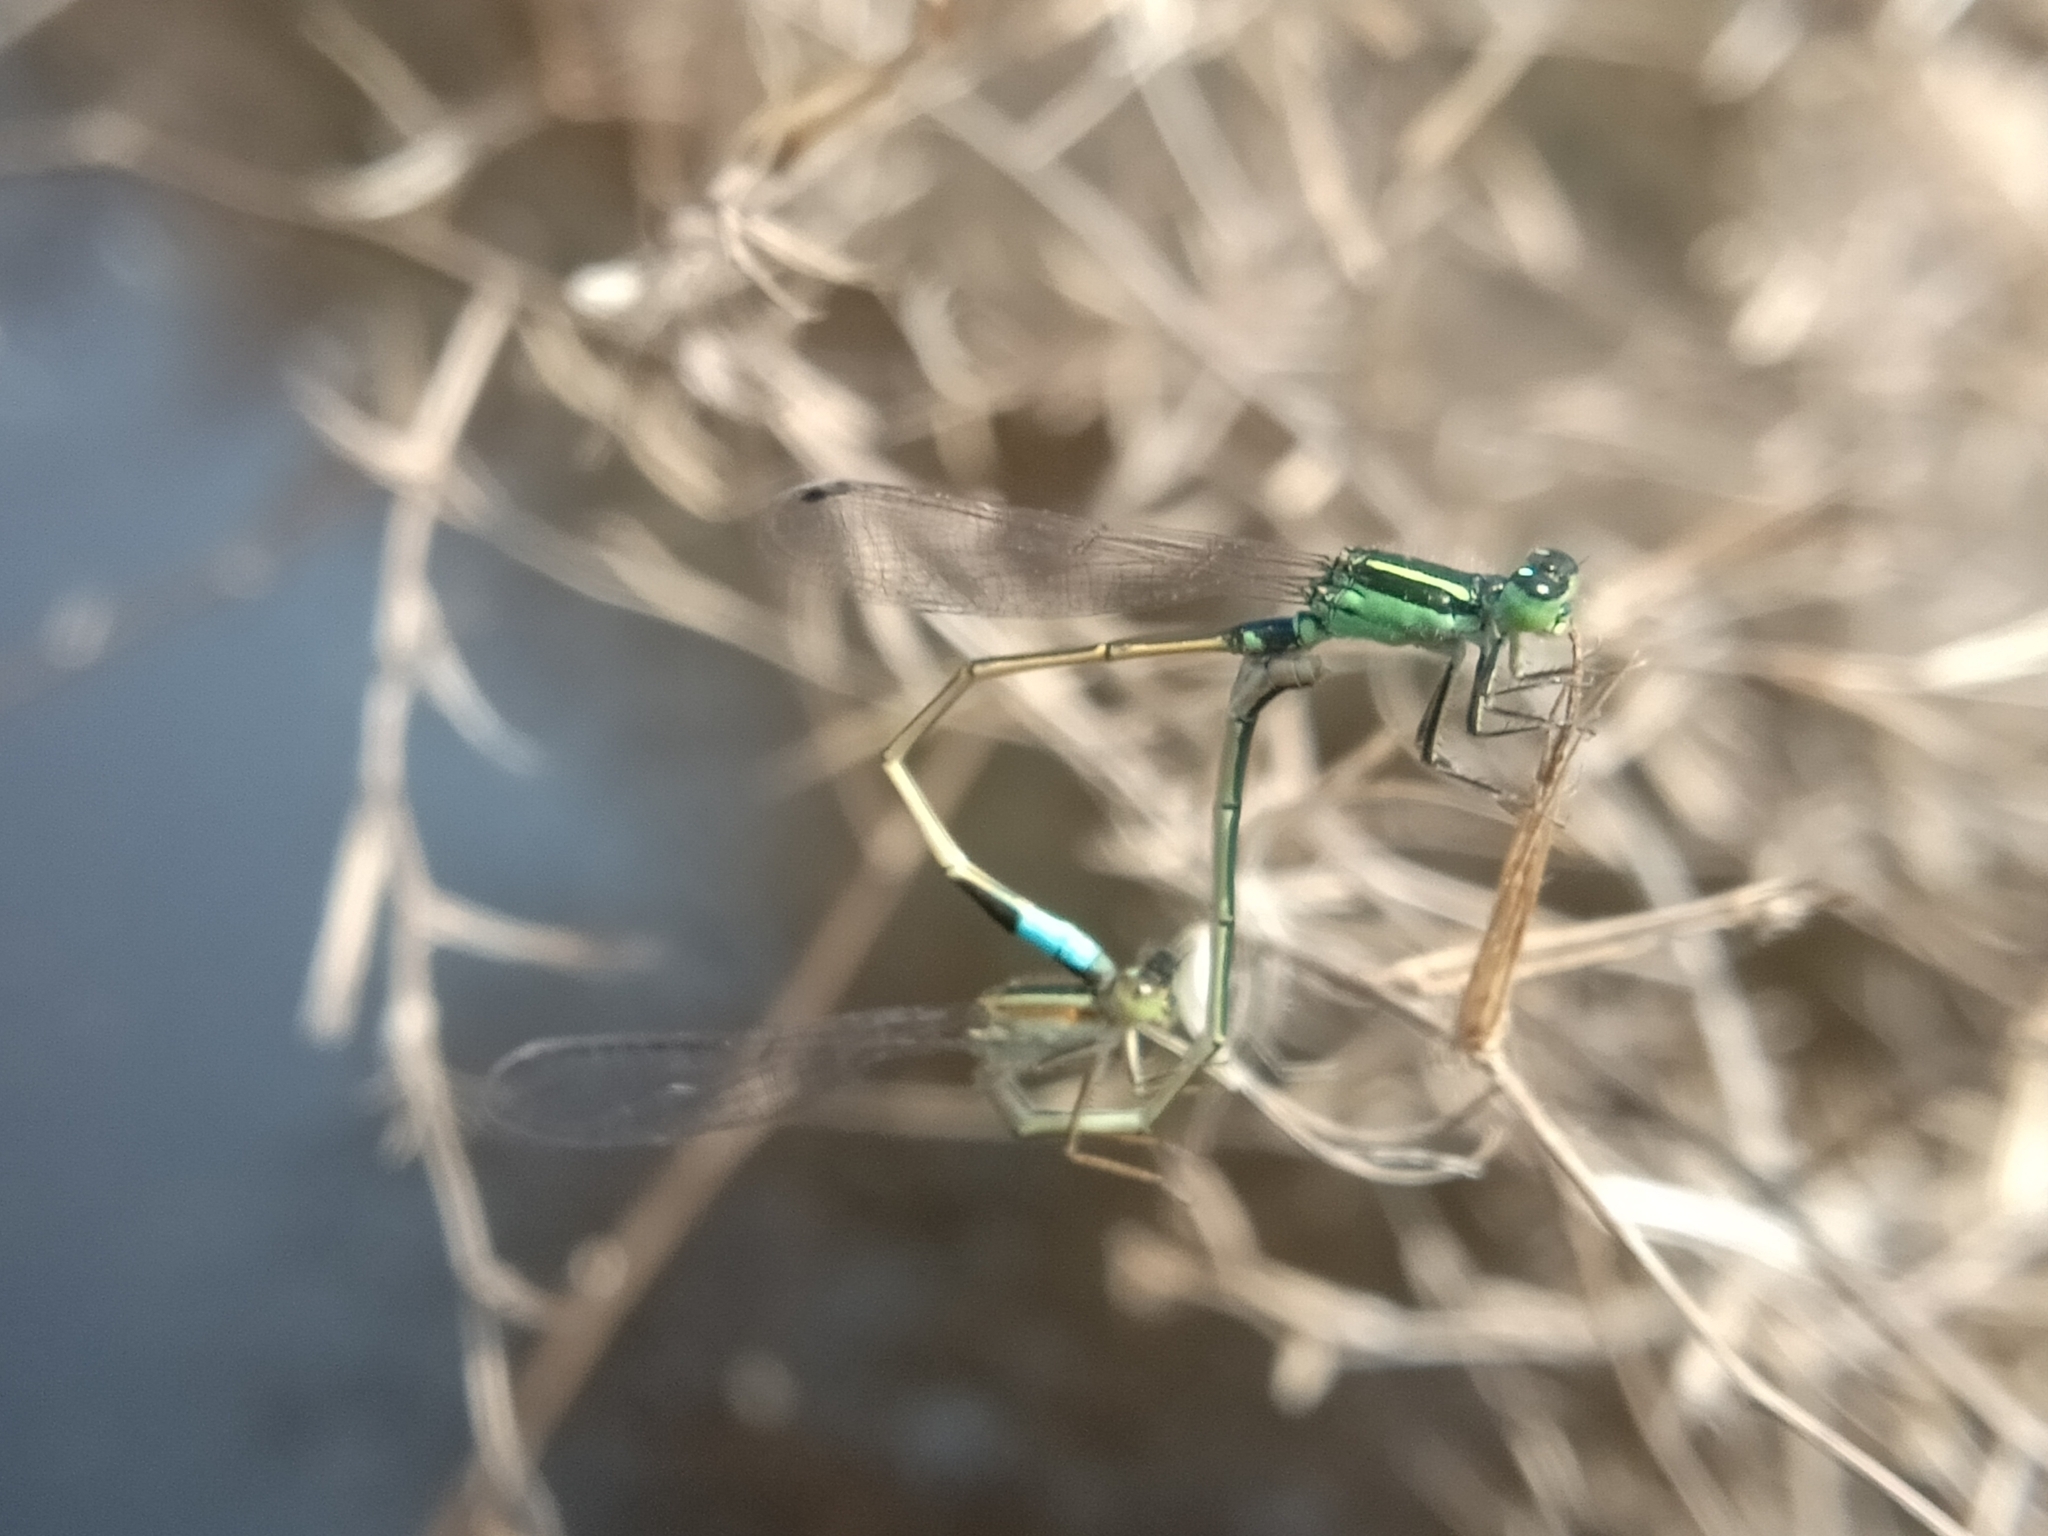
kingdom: Animalia
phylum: Arthropoda
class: Insecta
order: Odonata
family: Coenagrionidae
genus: Ischnura
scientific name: Ischnura senegalensis
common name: Tropical bluetail
